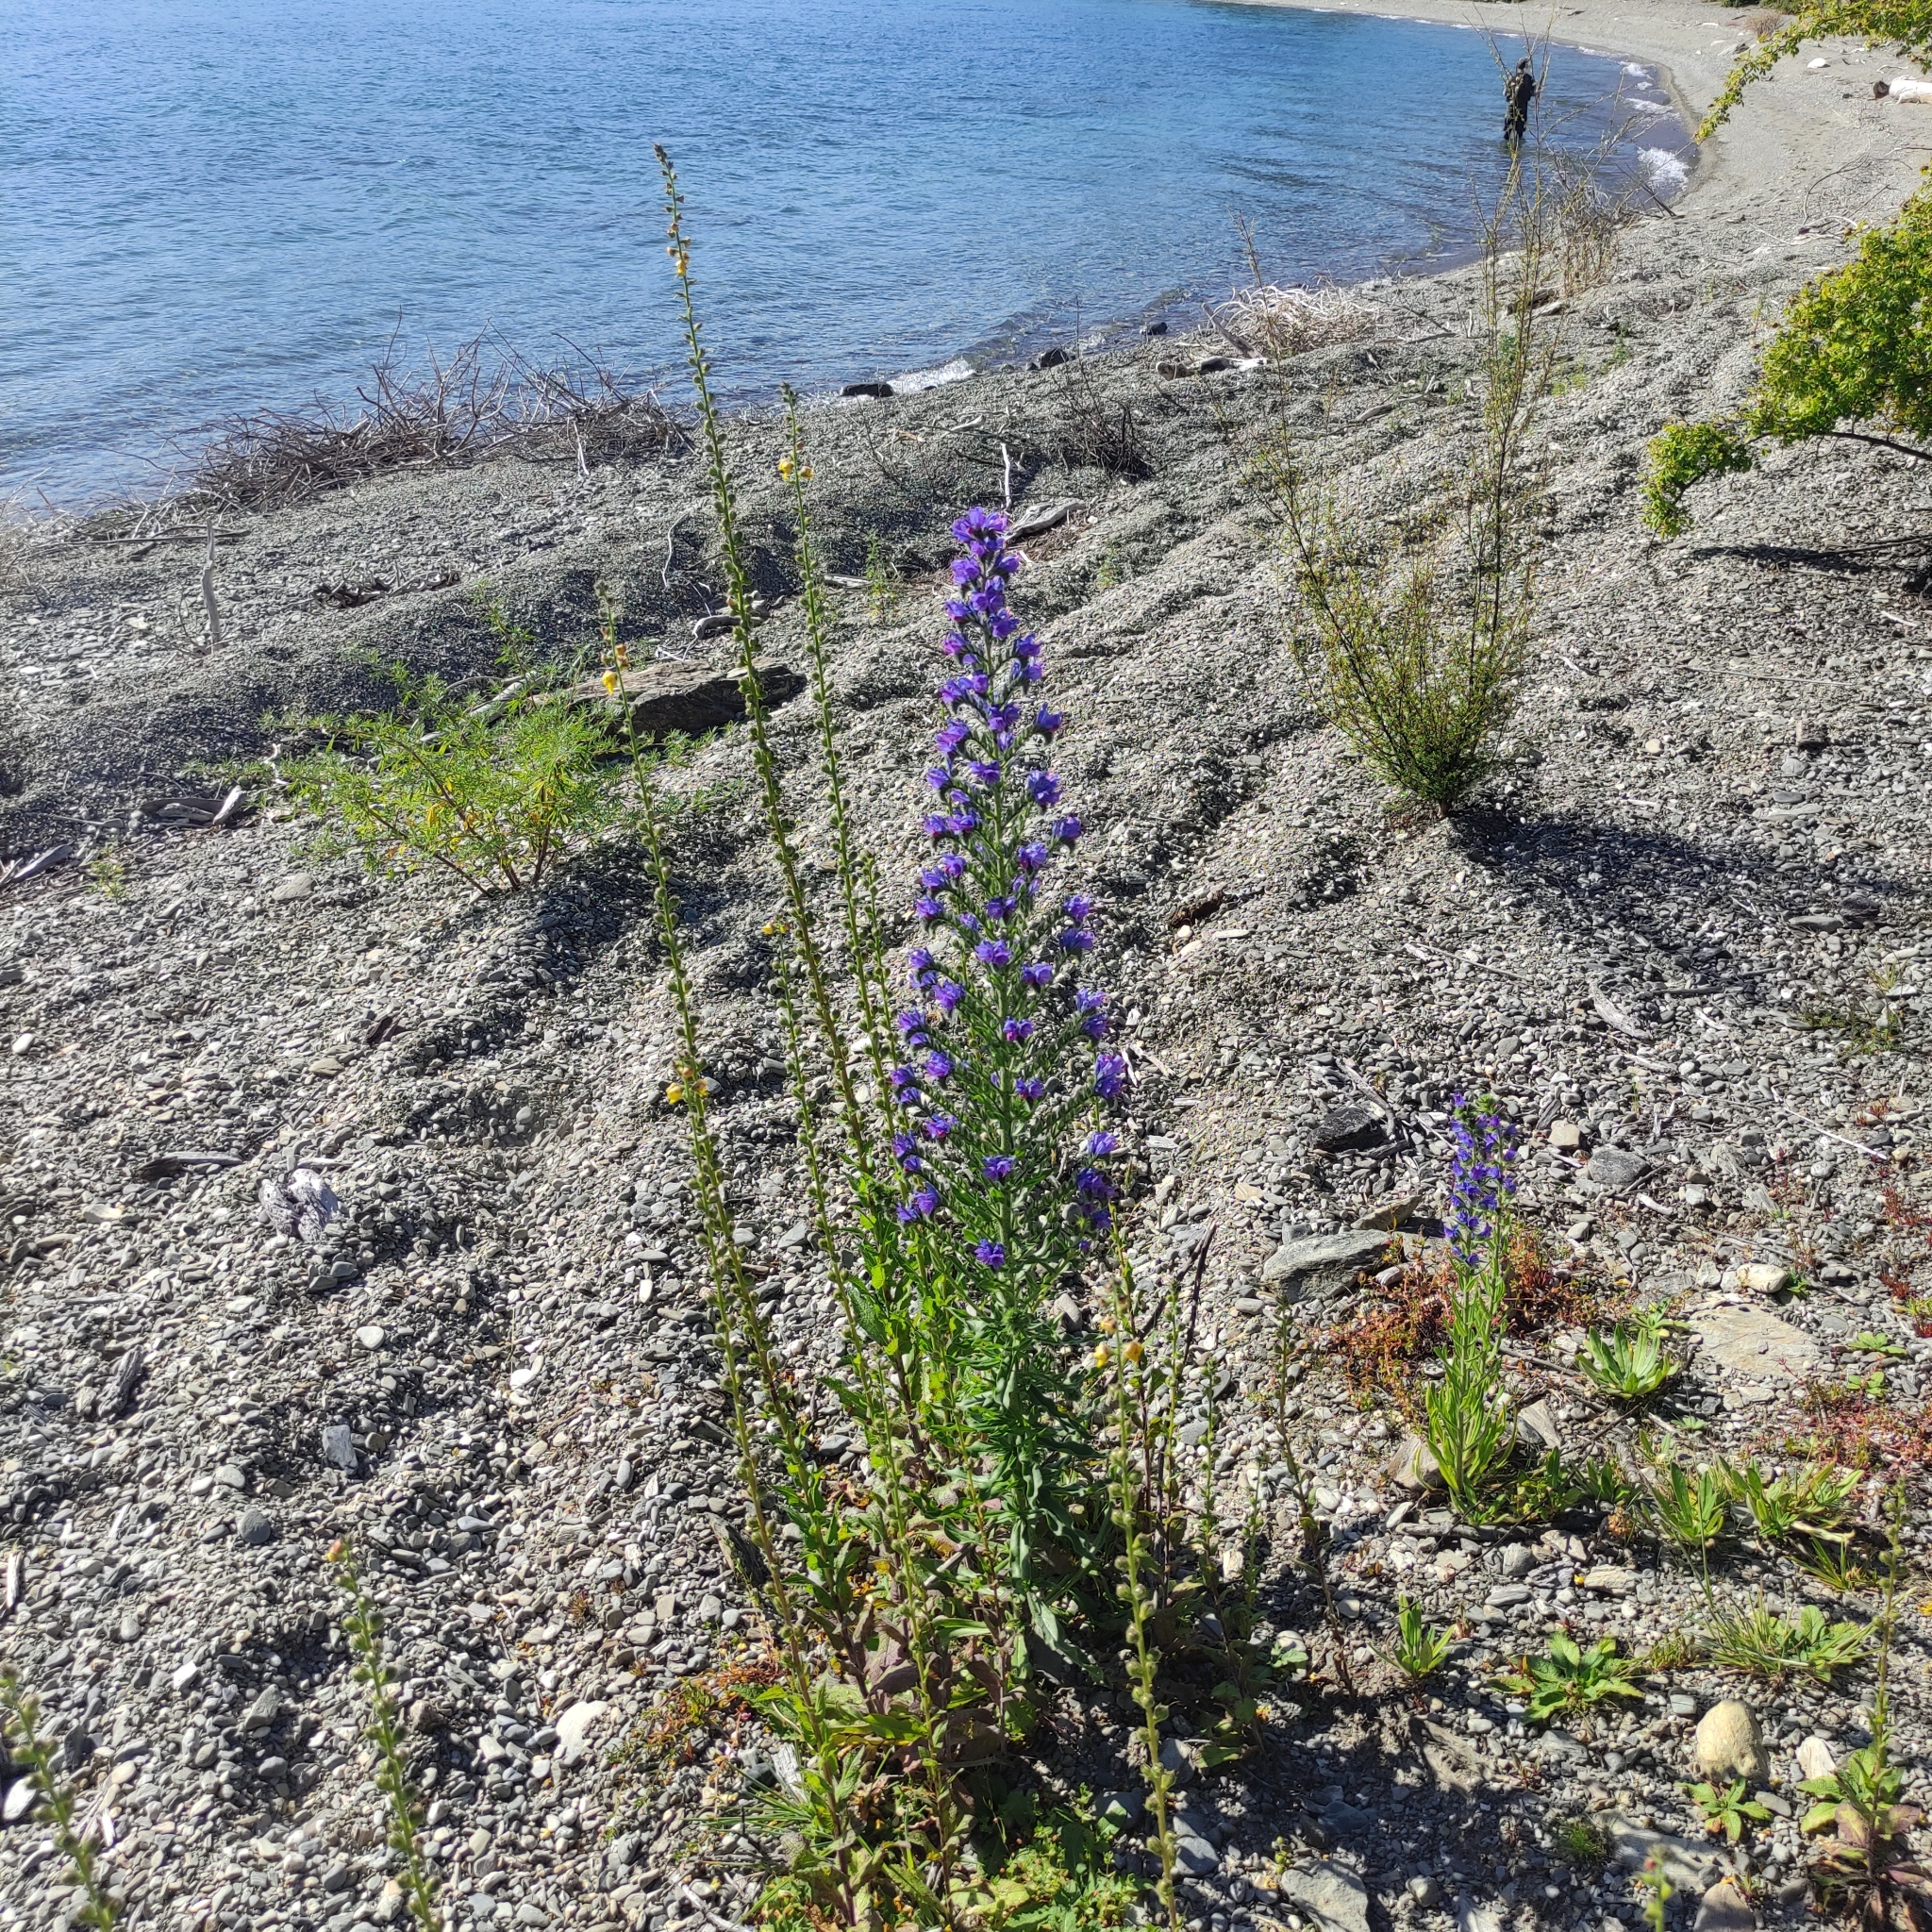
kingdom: Plantae
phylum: Tracheophyta
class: Magnoliopsida
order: Boraginales
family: Boraginaceae
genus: Echium
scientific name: Echium vulgare
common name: Common viper's bugloss
